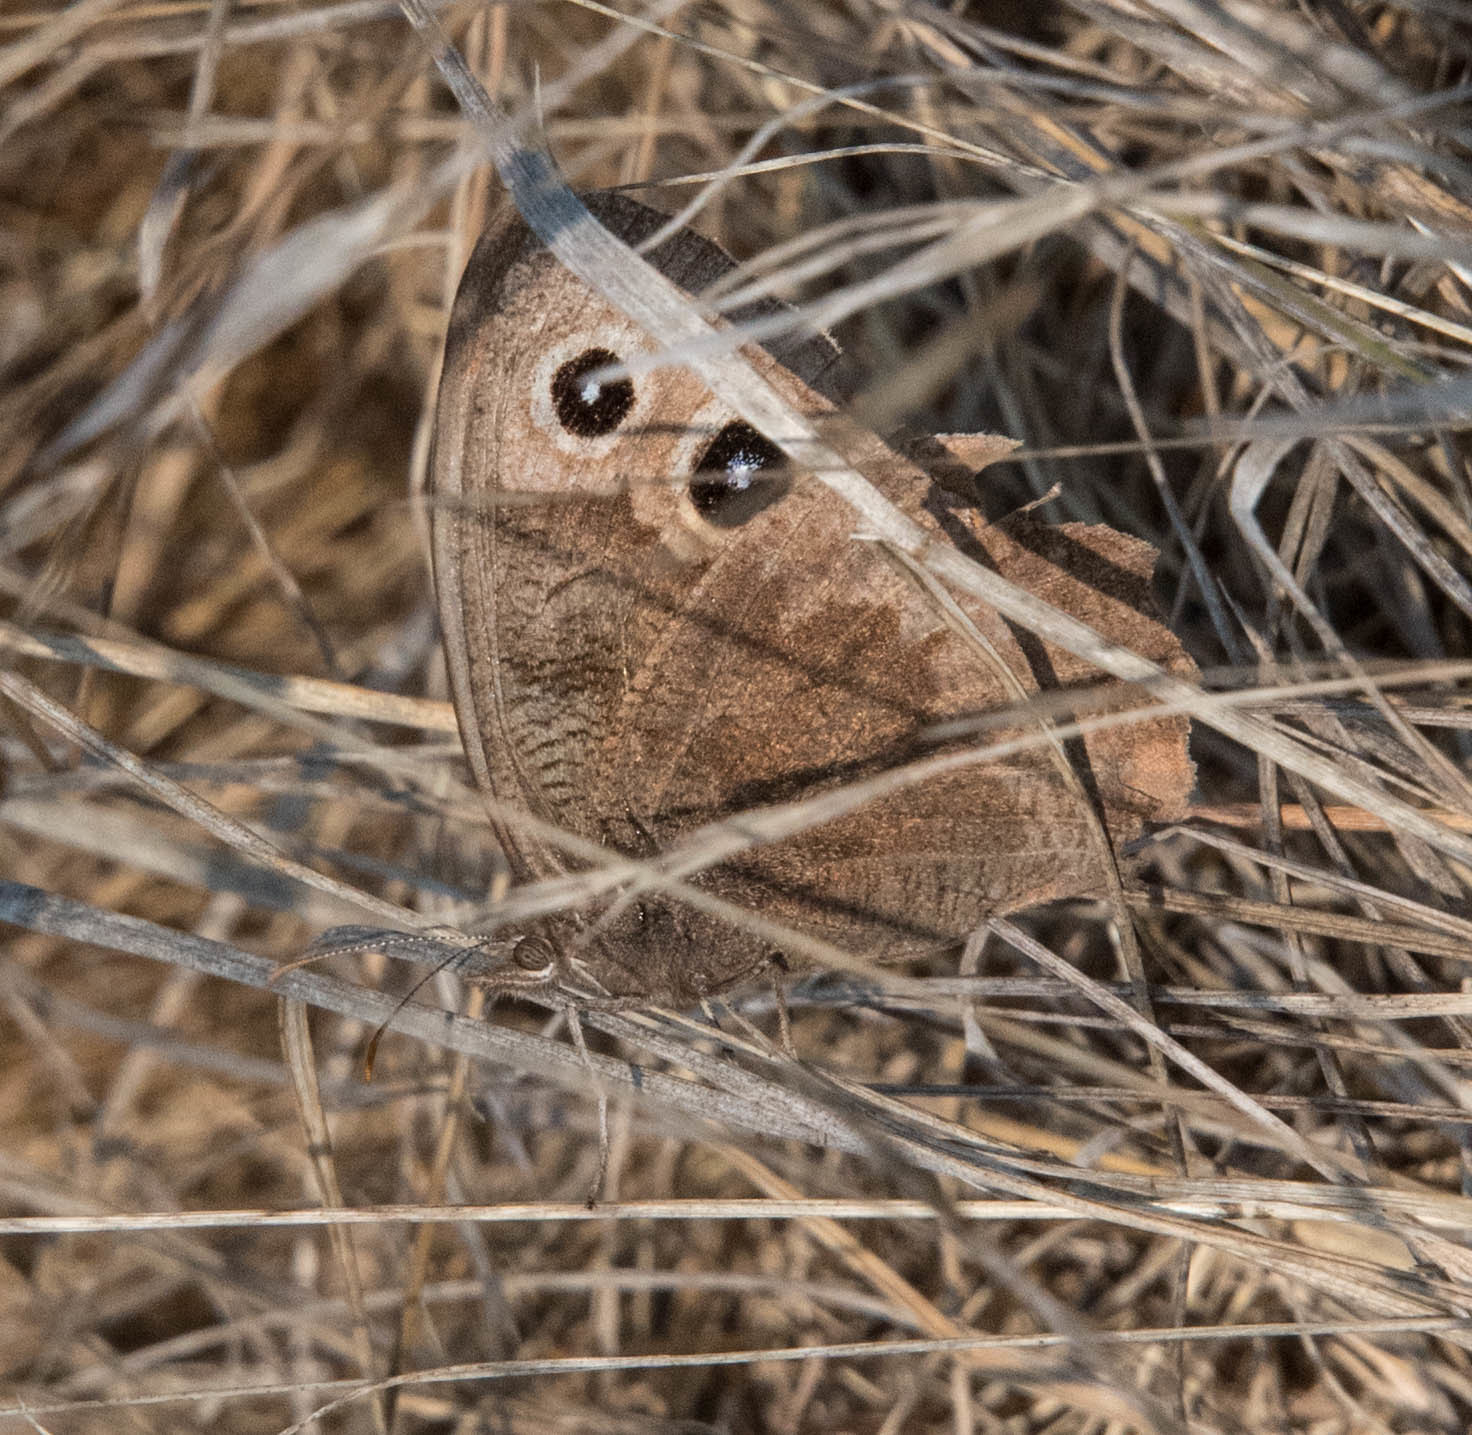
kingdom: Animalia
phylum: Arthropoda
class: Insecta
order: Lepidoptera
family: Nymphalidae
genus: Cercyonis
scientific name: Cercyonis pegala
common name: Common wood-nymph
